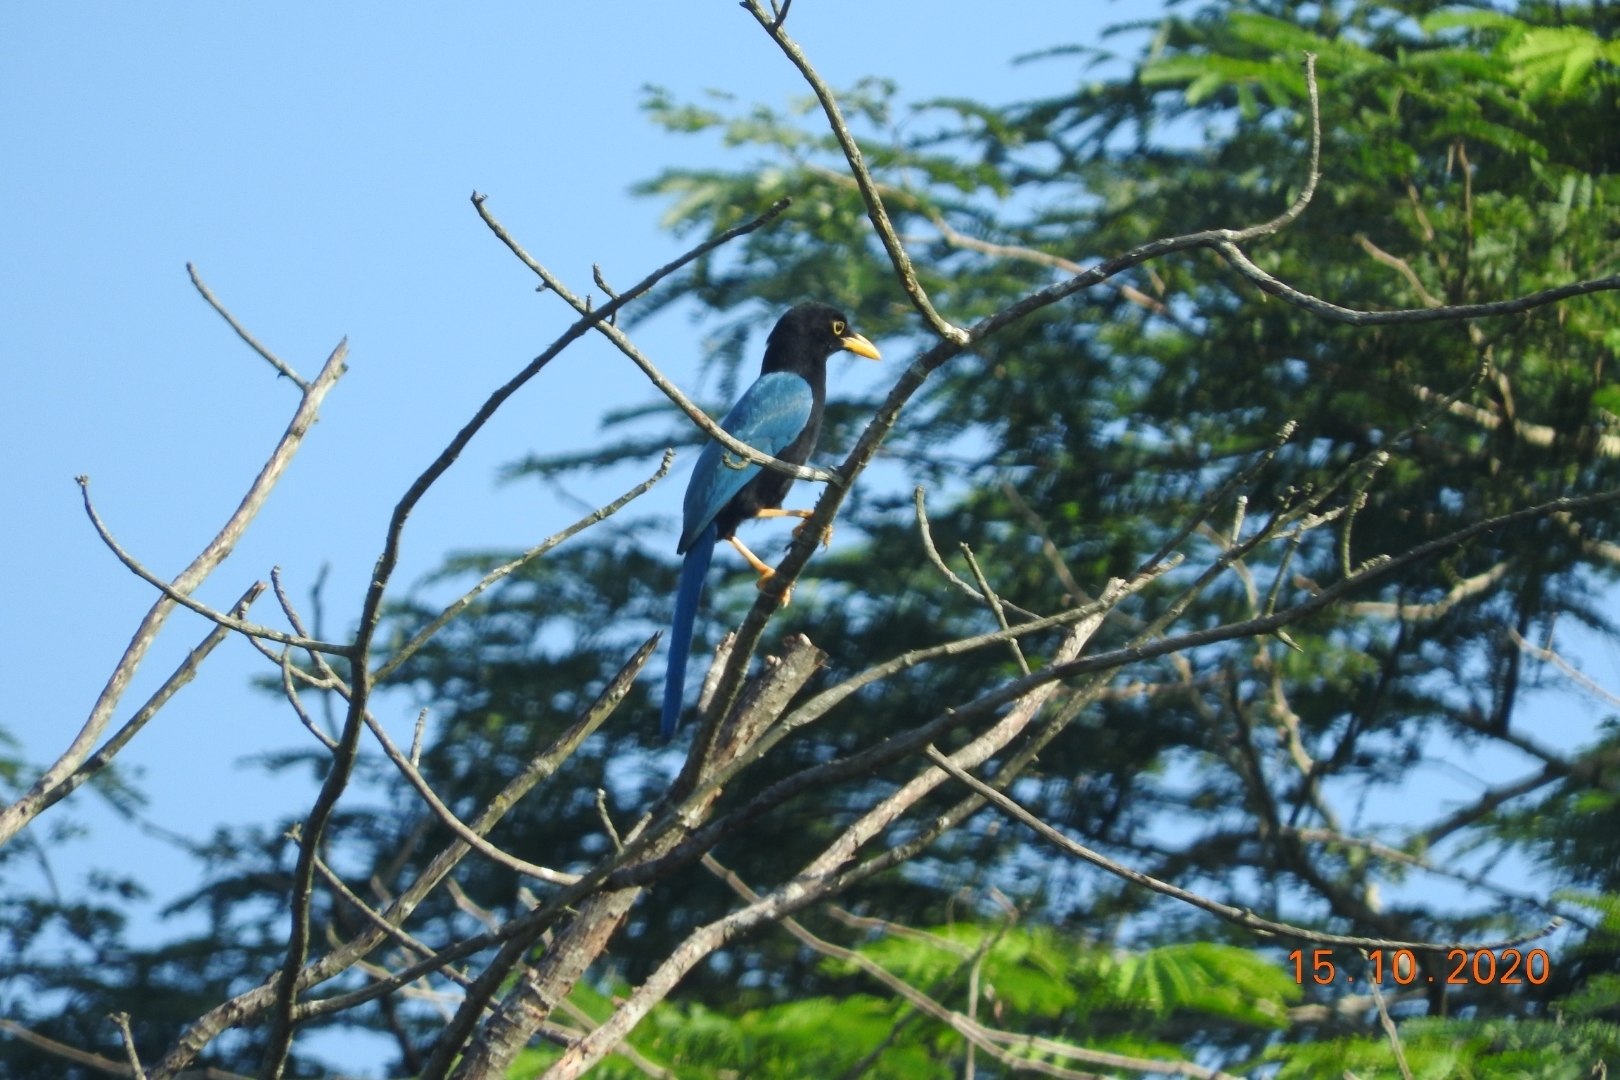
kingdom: Animalia
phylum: Chordata
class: Aves
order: Passeriformes
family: Corvidae
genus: Cyanocorax
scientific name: Cyanocorax yucatanicus
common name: Yucatan jay
